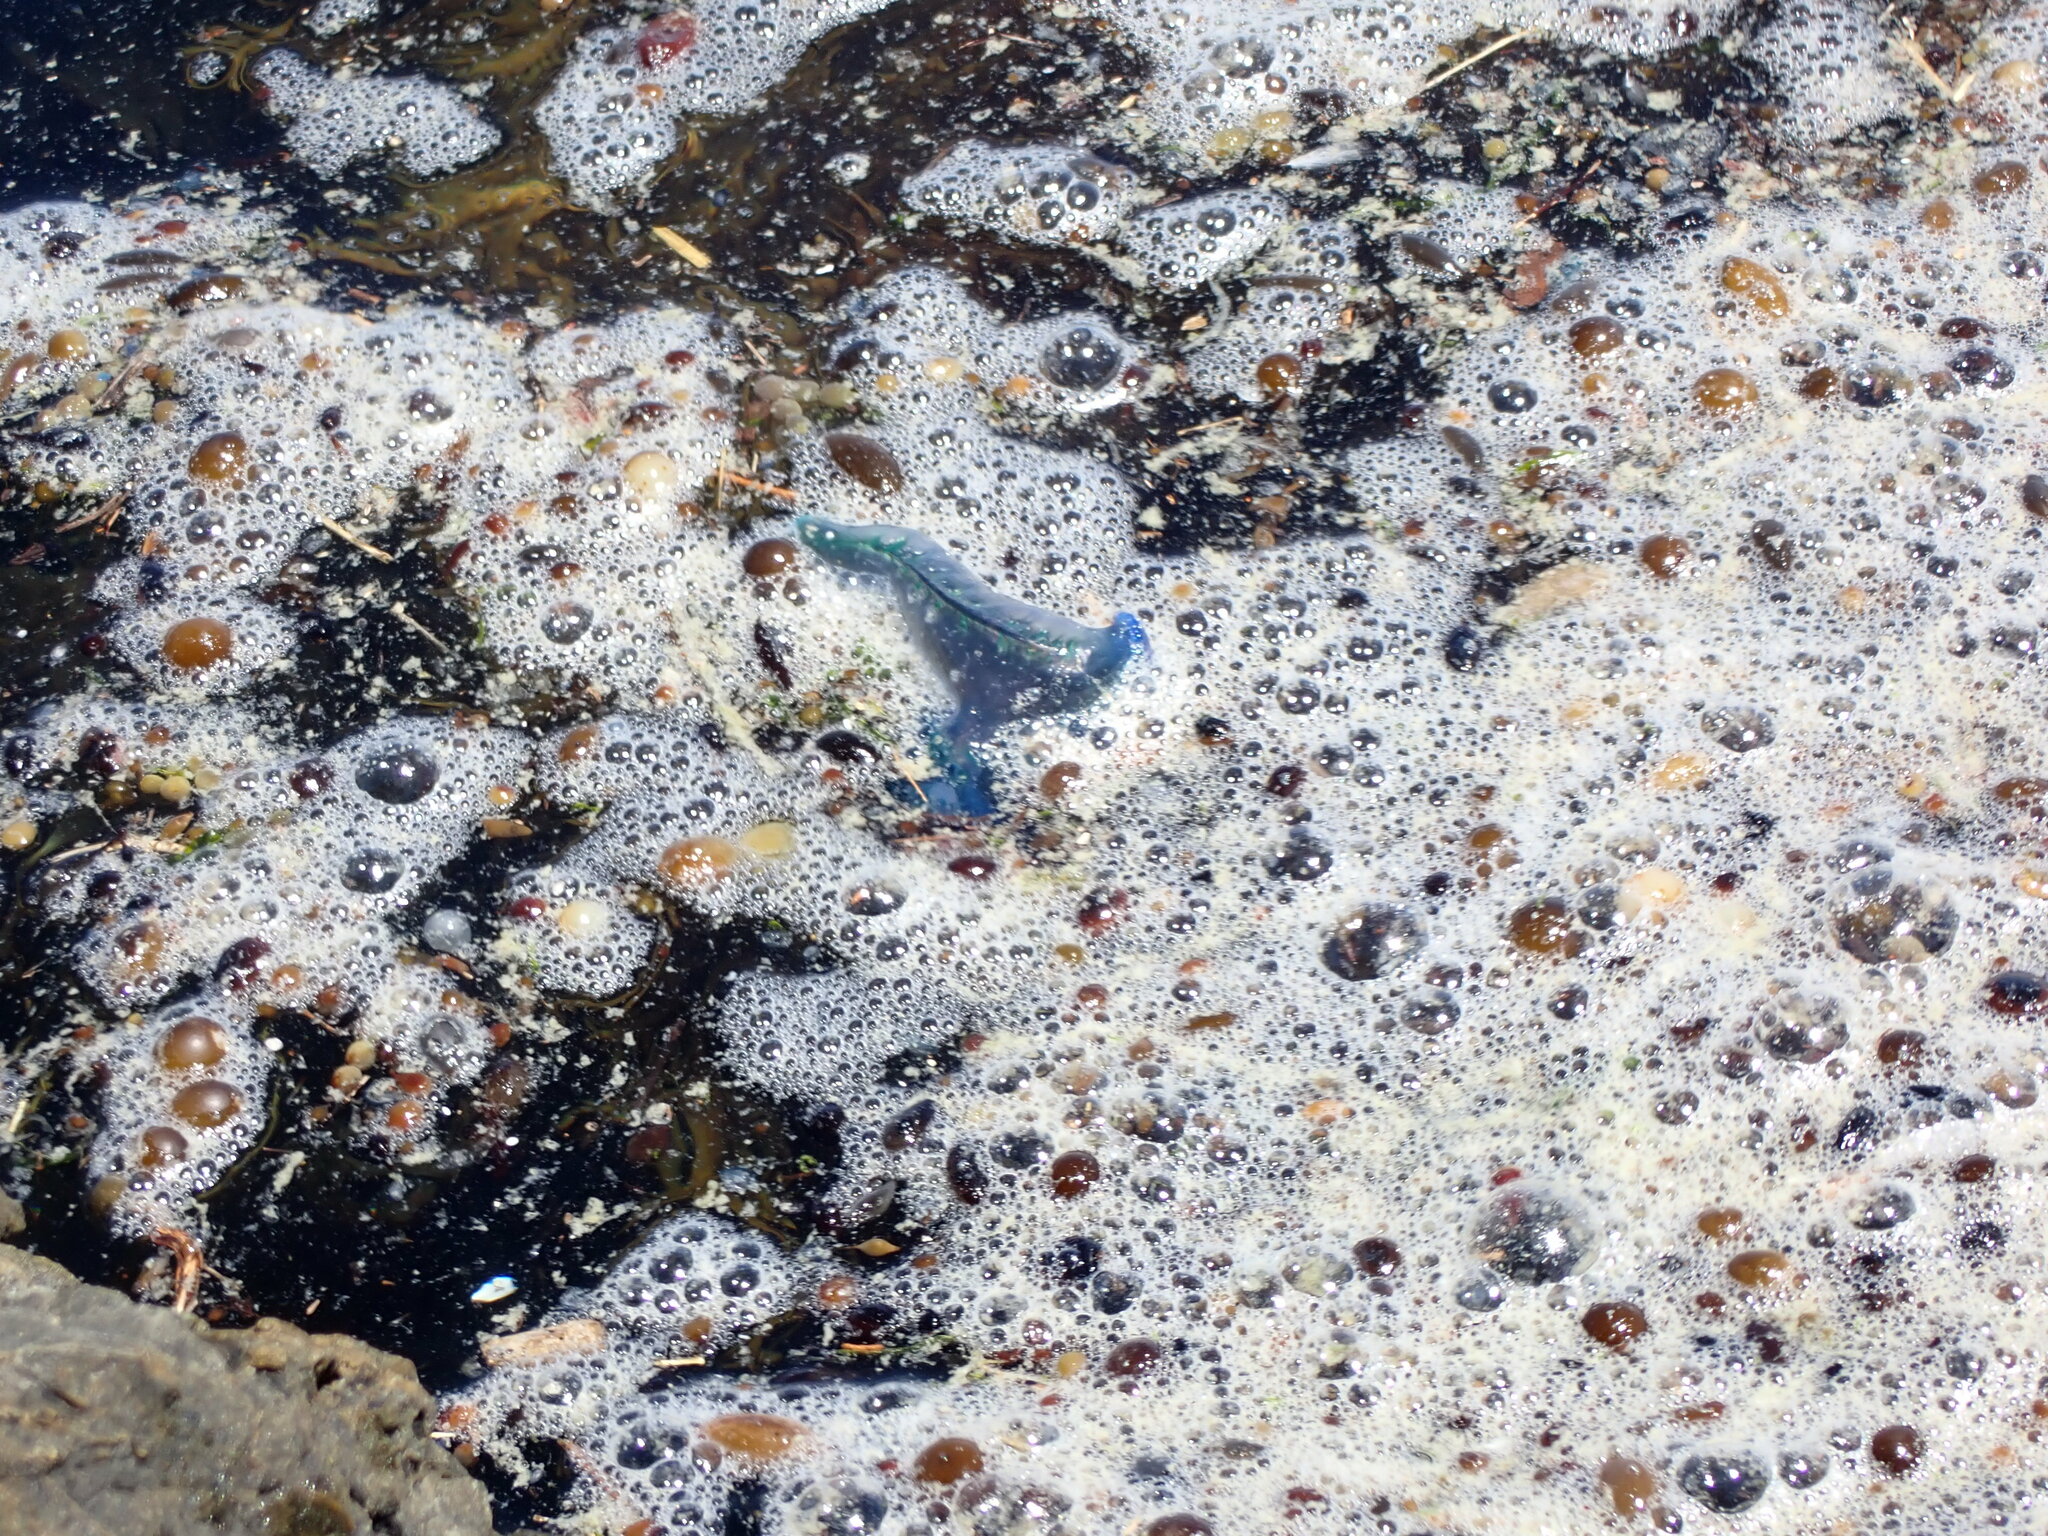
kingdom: Animalia
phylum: Cnidaria
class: Hydrozoa
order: Siphonophorae
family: Physaliidae
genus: Physalia
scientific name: Physalia physalis
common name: Portuguese man-of-war
